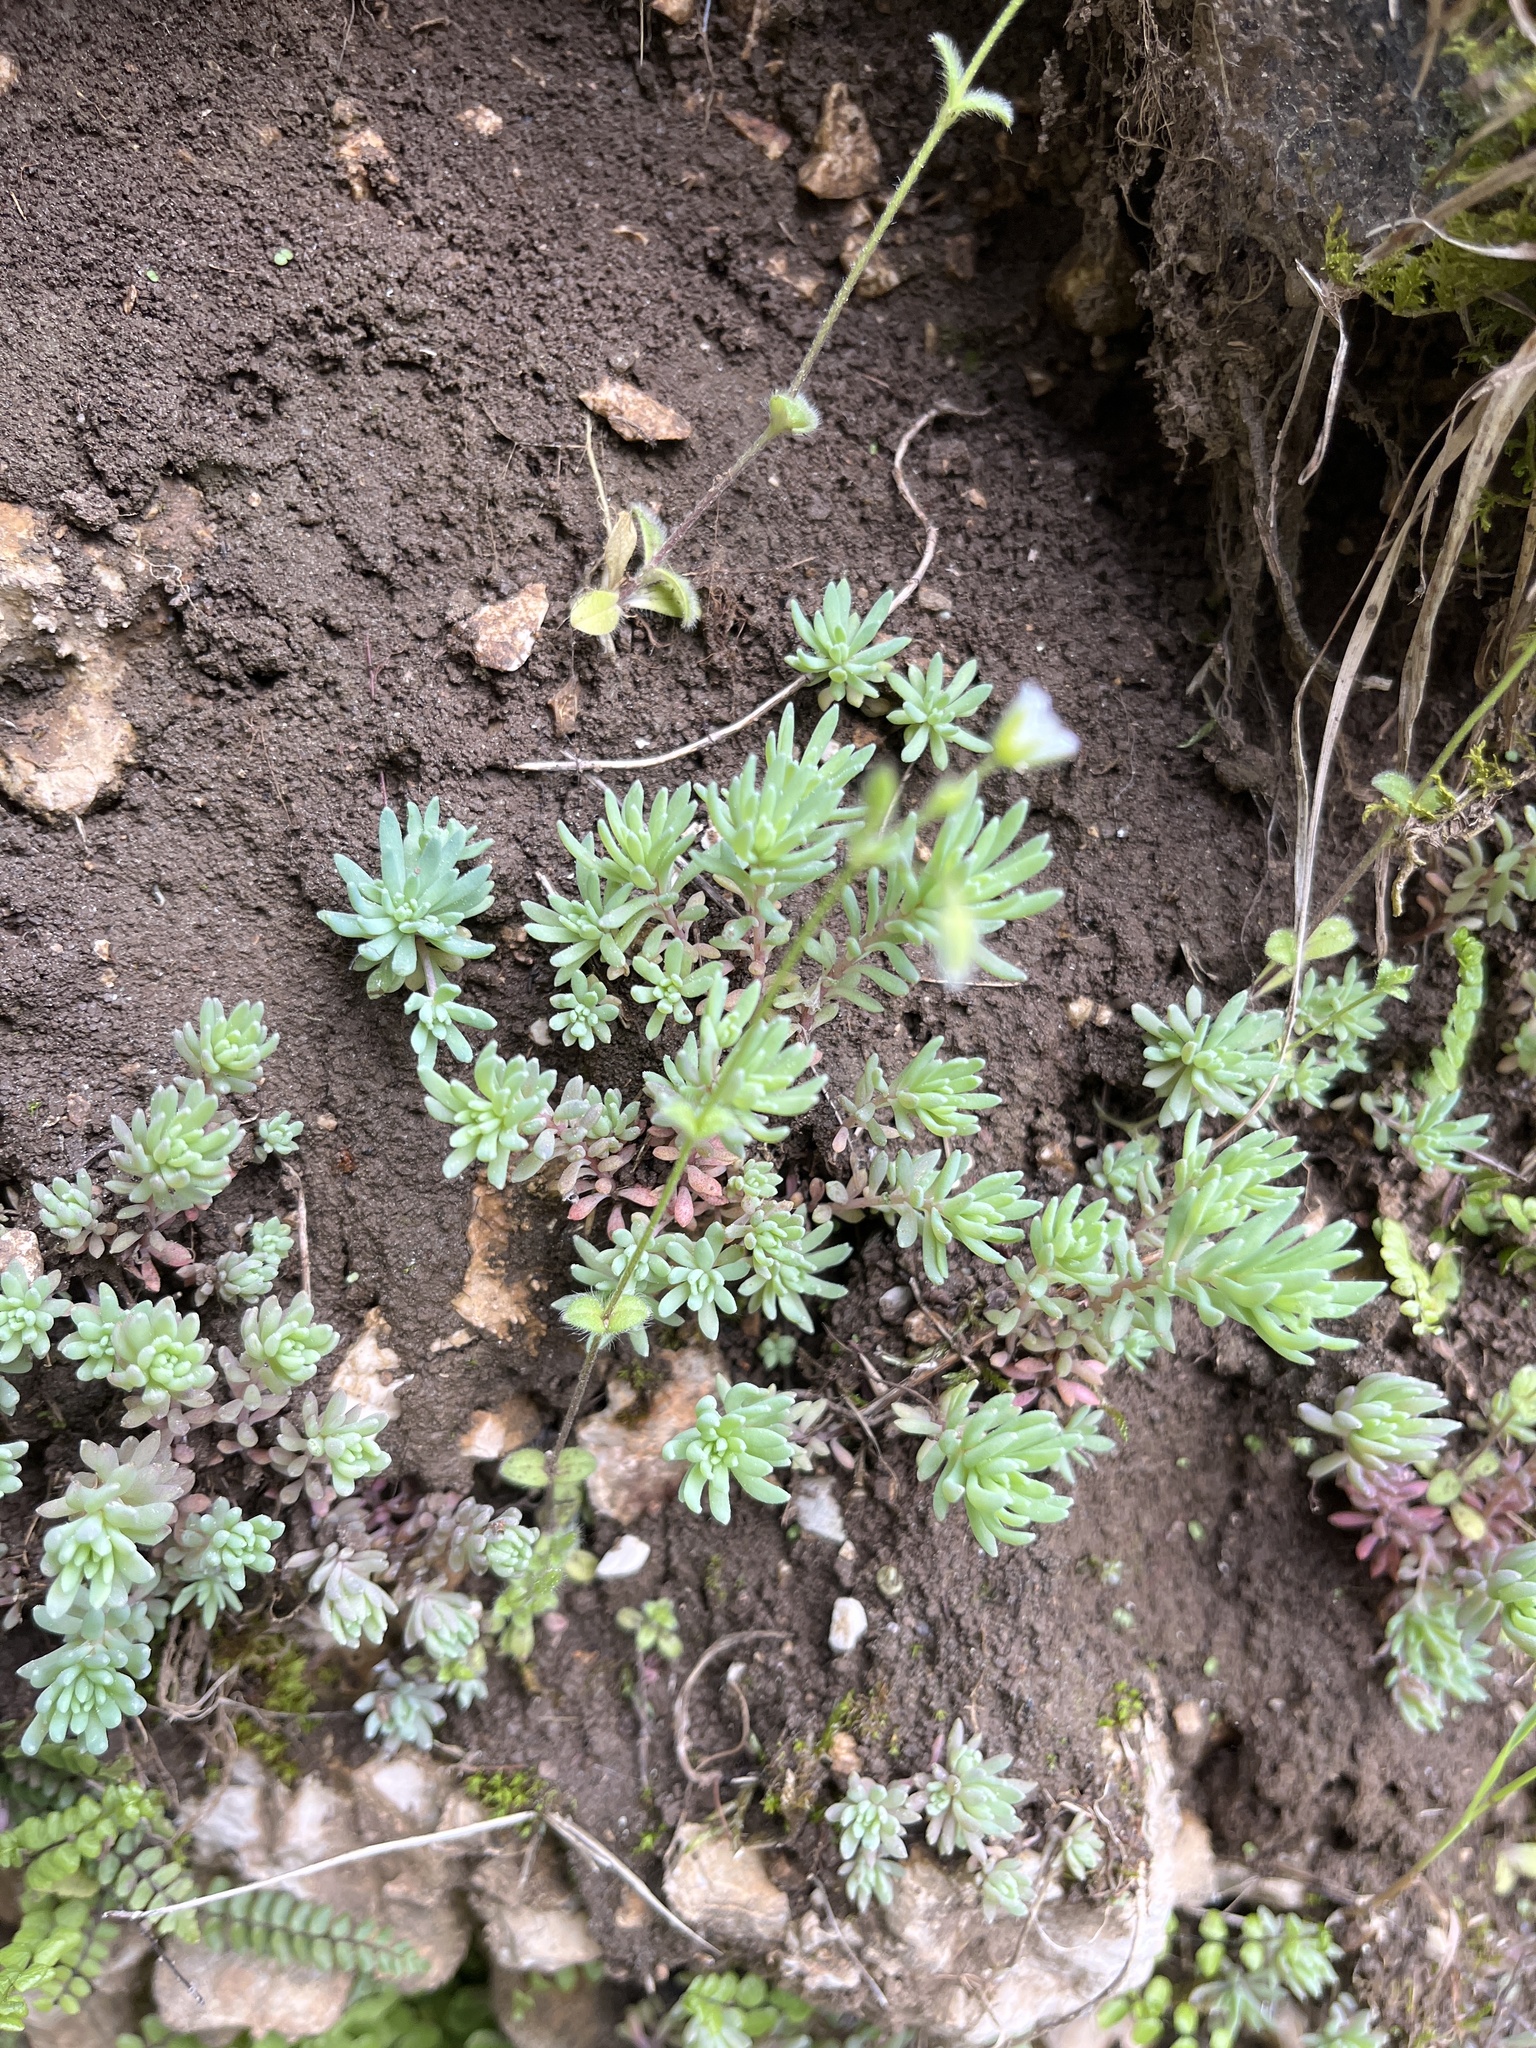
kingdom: Plantae
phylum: Tracheophyta
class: Magnoliopsida
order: Saxifragales
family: Crassulaceae
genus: Sedum
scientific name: Sedum hispanicum
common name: Spanish stonecrop
